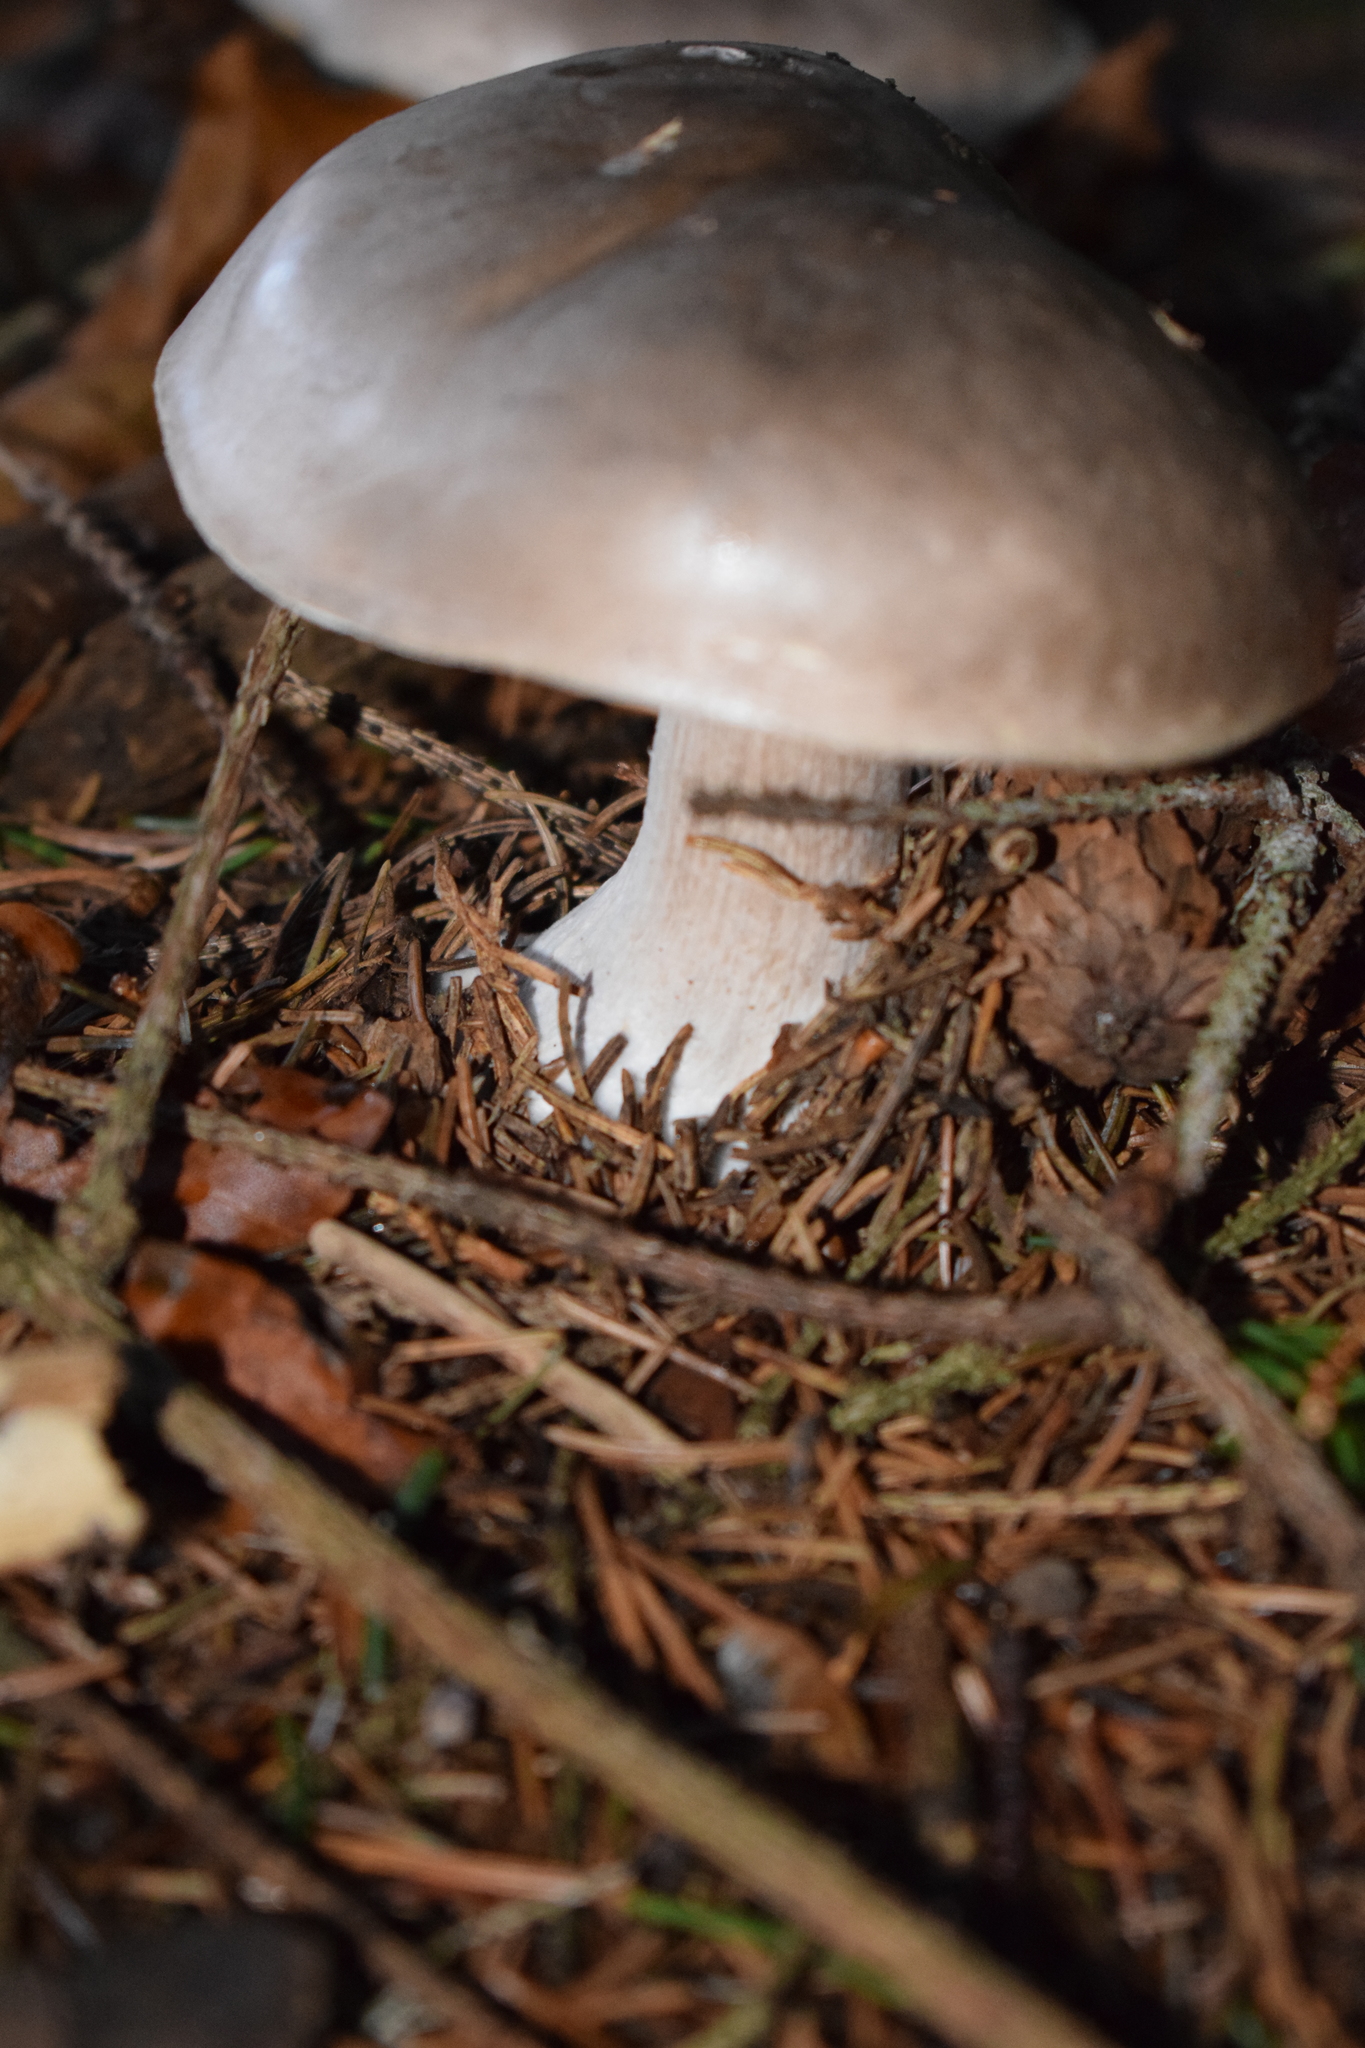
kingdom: Fungi
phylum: Basidiomycota
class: Agaricomycetes
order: Agaricales
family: Tricholomataceae
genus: Clitocybe
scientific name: Clitocybe nebularis
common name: Clouded agaric
